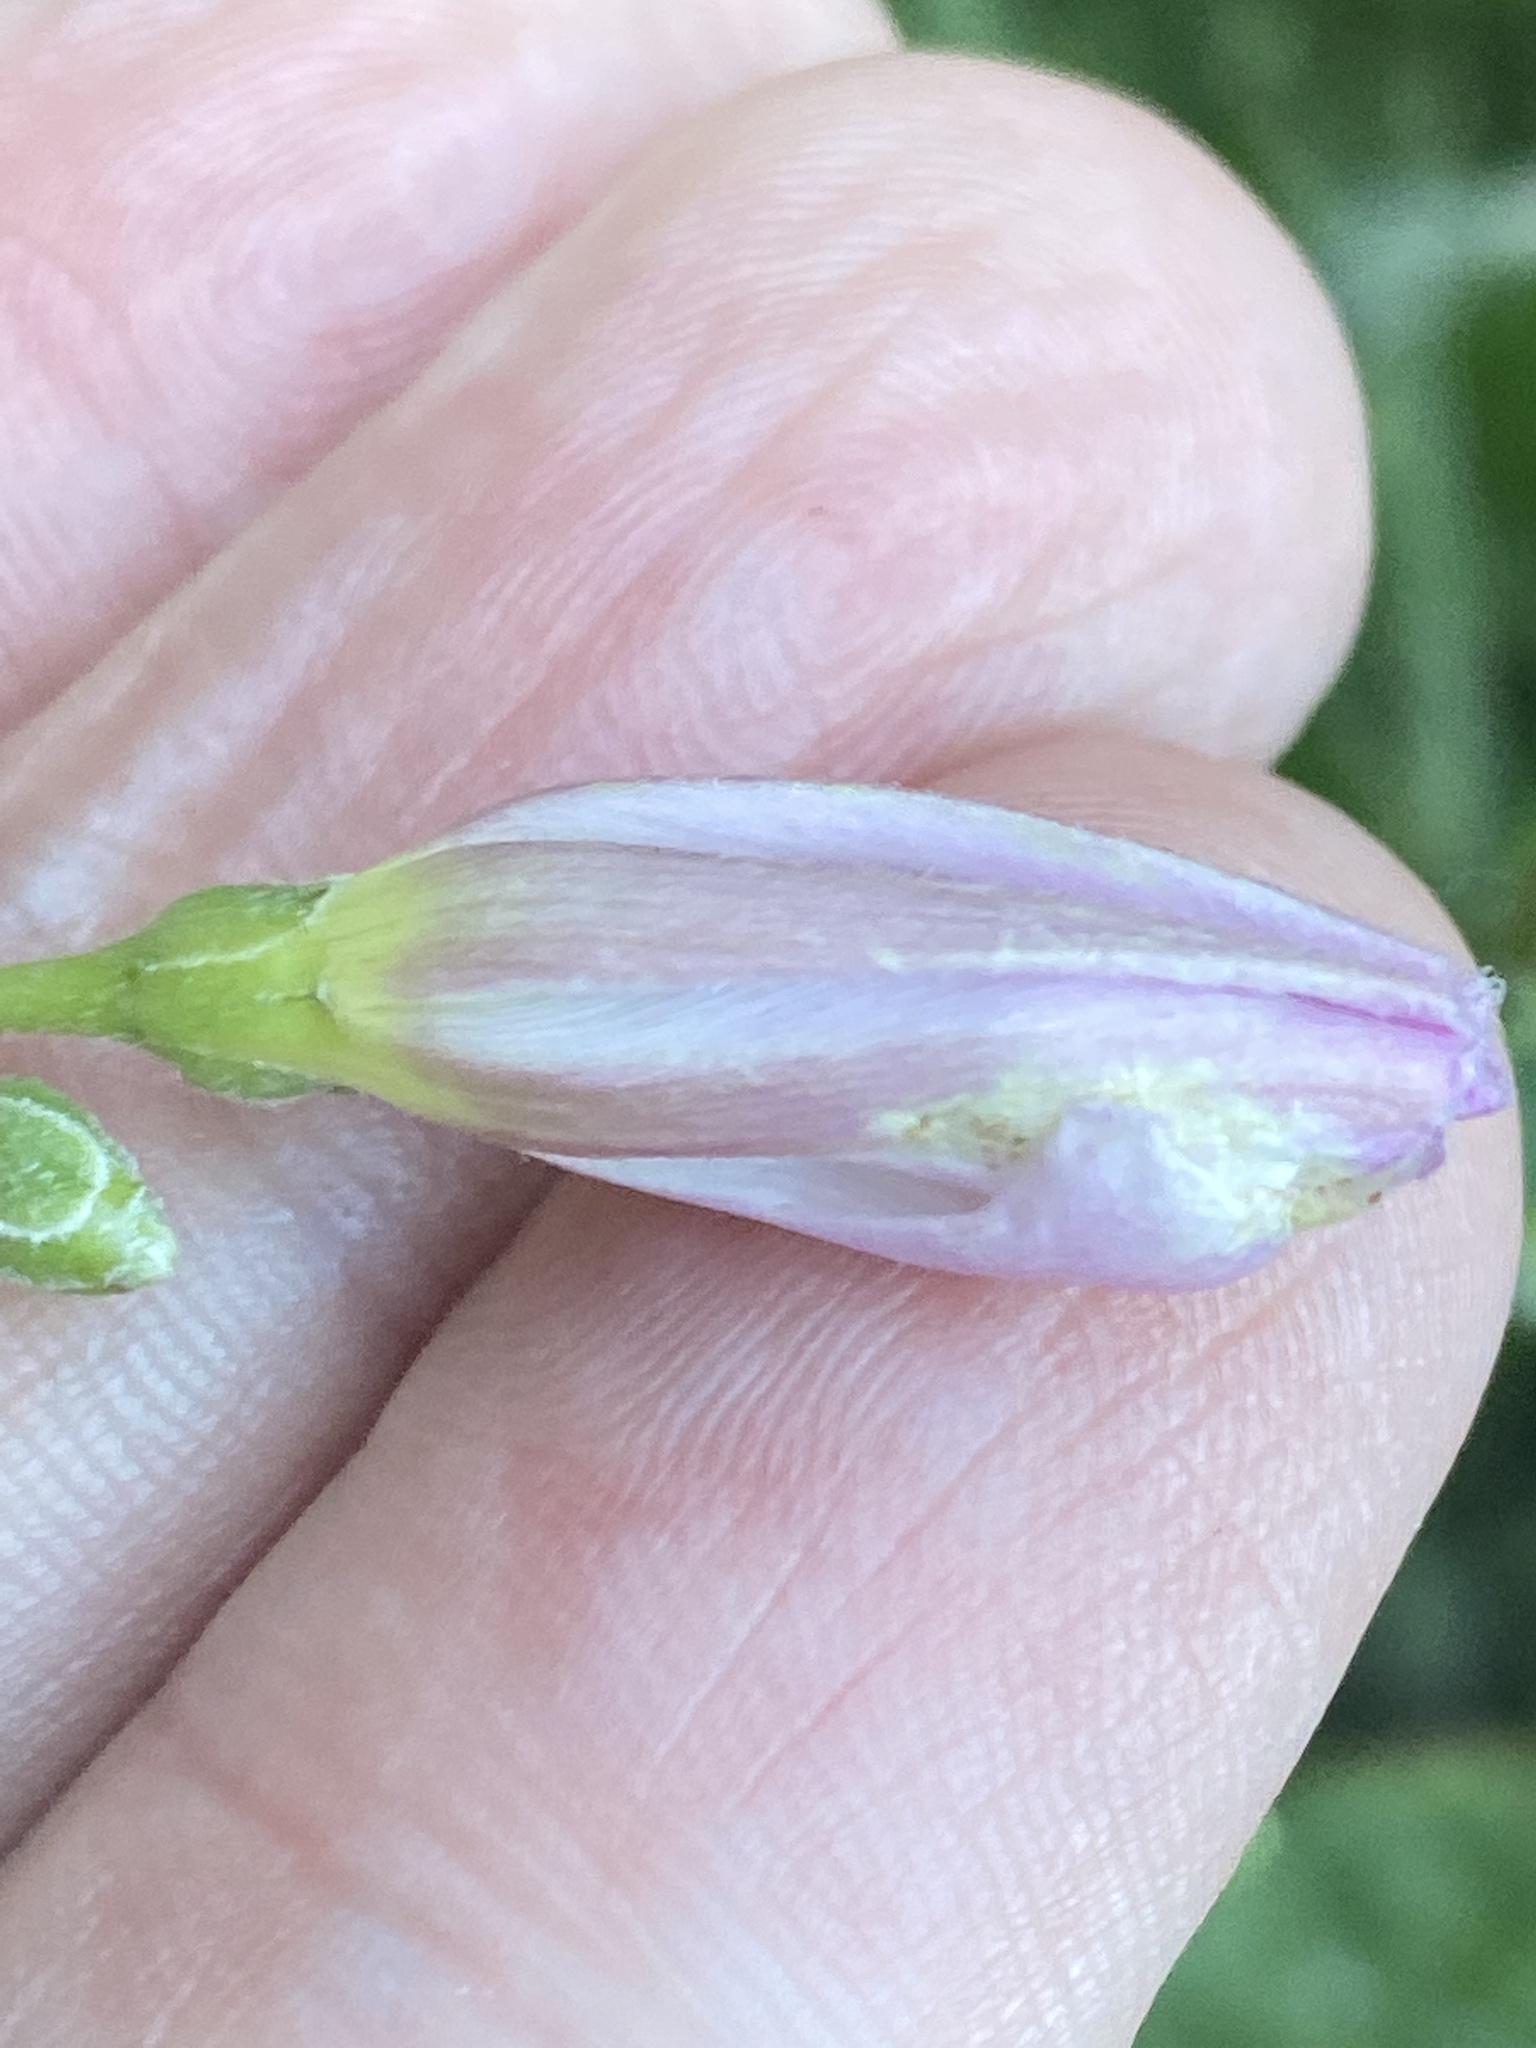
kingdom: Plantae
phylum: Tracheophyta
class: Magnoliopsida
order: Solanales
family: Convolvulaceae
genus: Convolvulus
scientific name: Convolvulus arvensis
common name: Field bindweed
